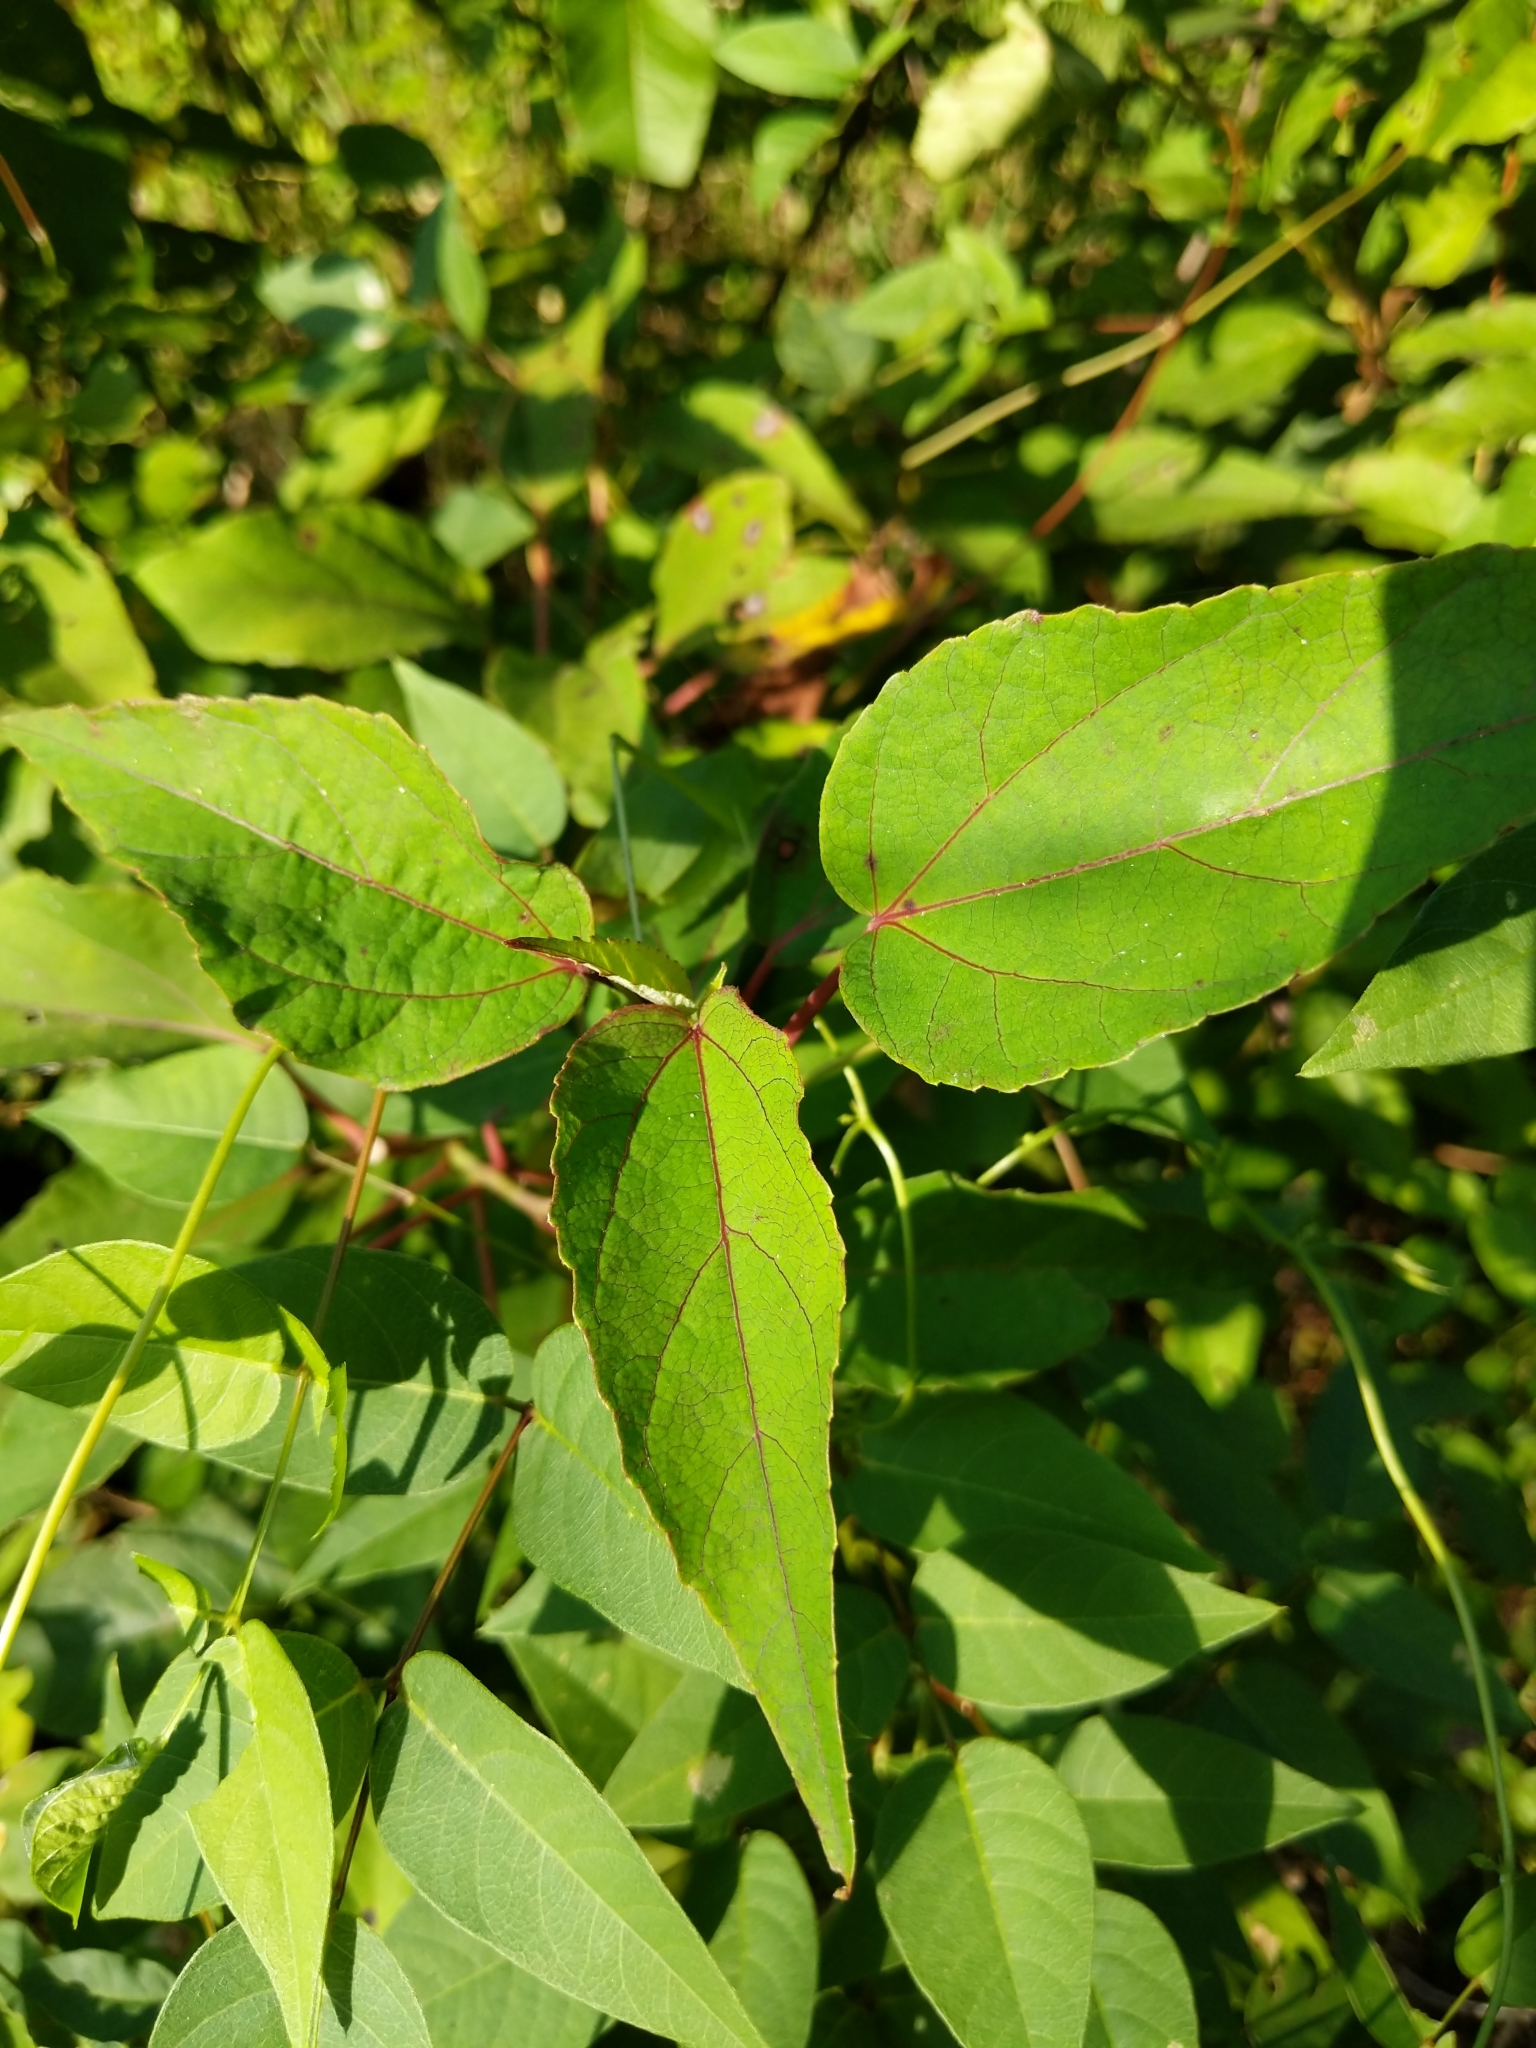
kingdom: Plantae
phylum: Tracheophyta
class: Magnoliopsida
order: Malvales
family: Malvaceae
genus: Hibiscus
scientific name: Hibiscus moscheutos
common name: Common rose-mallow
